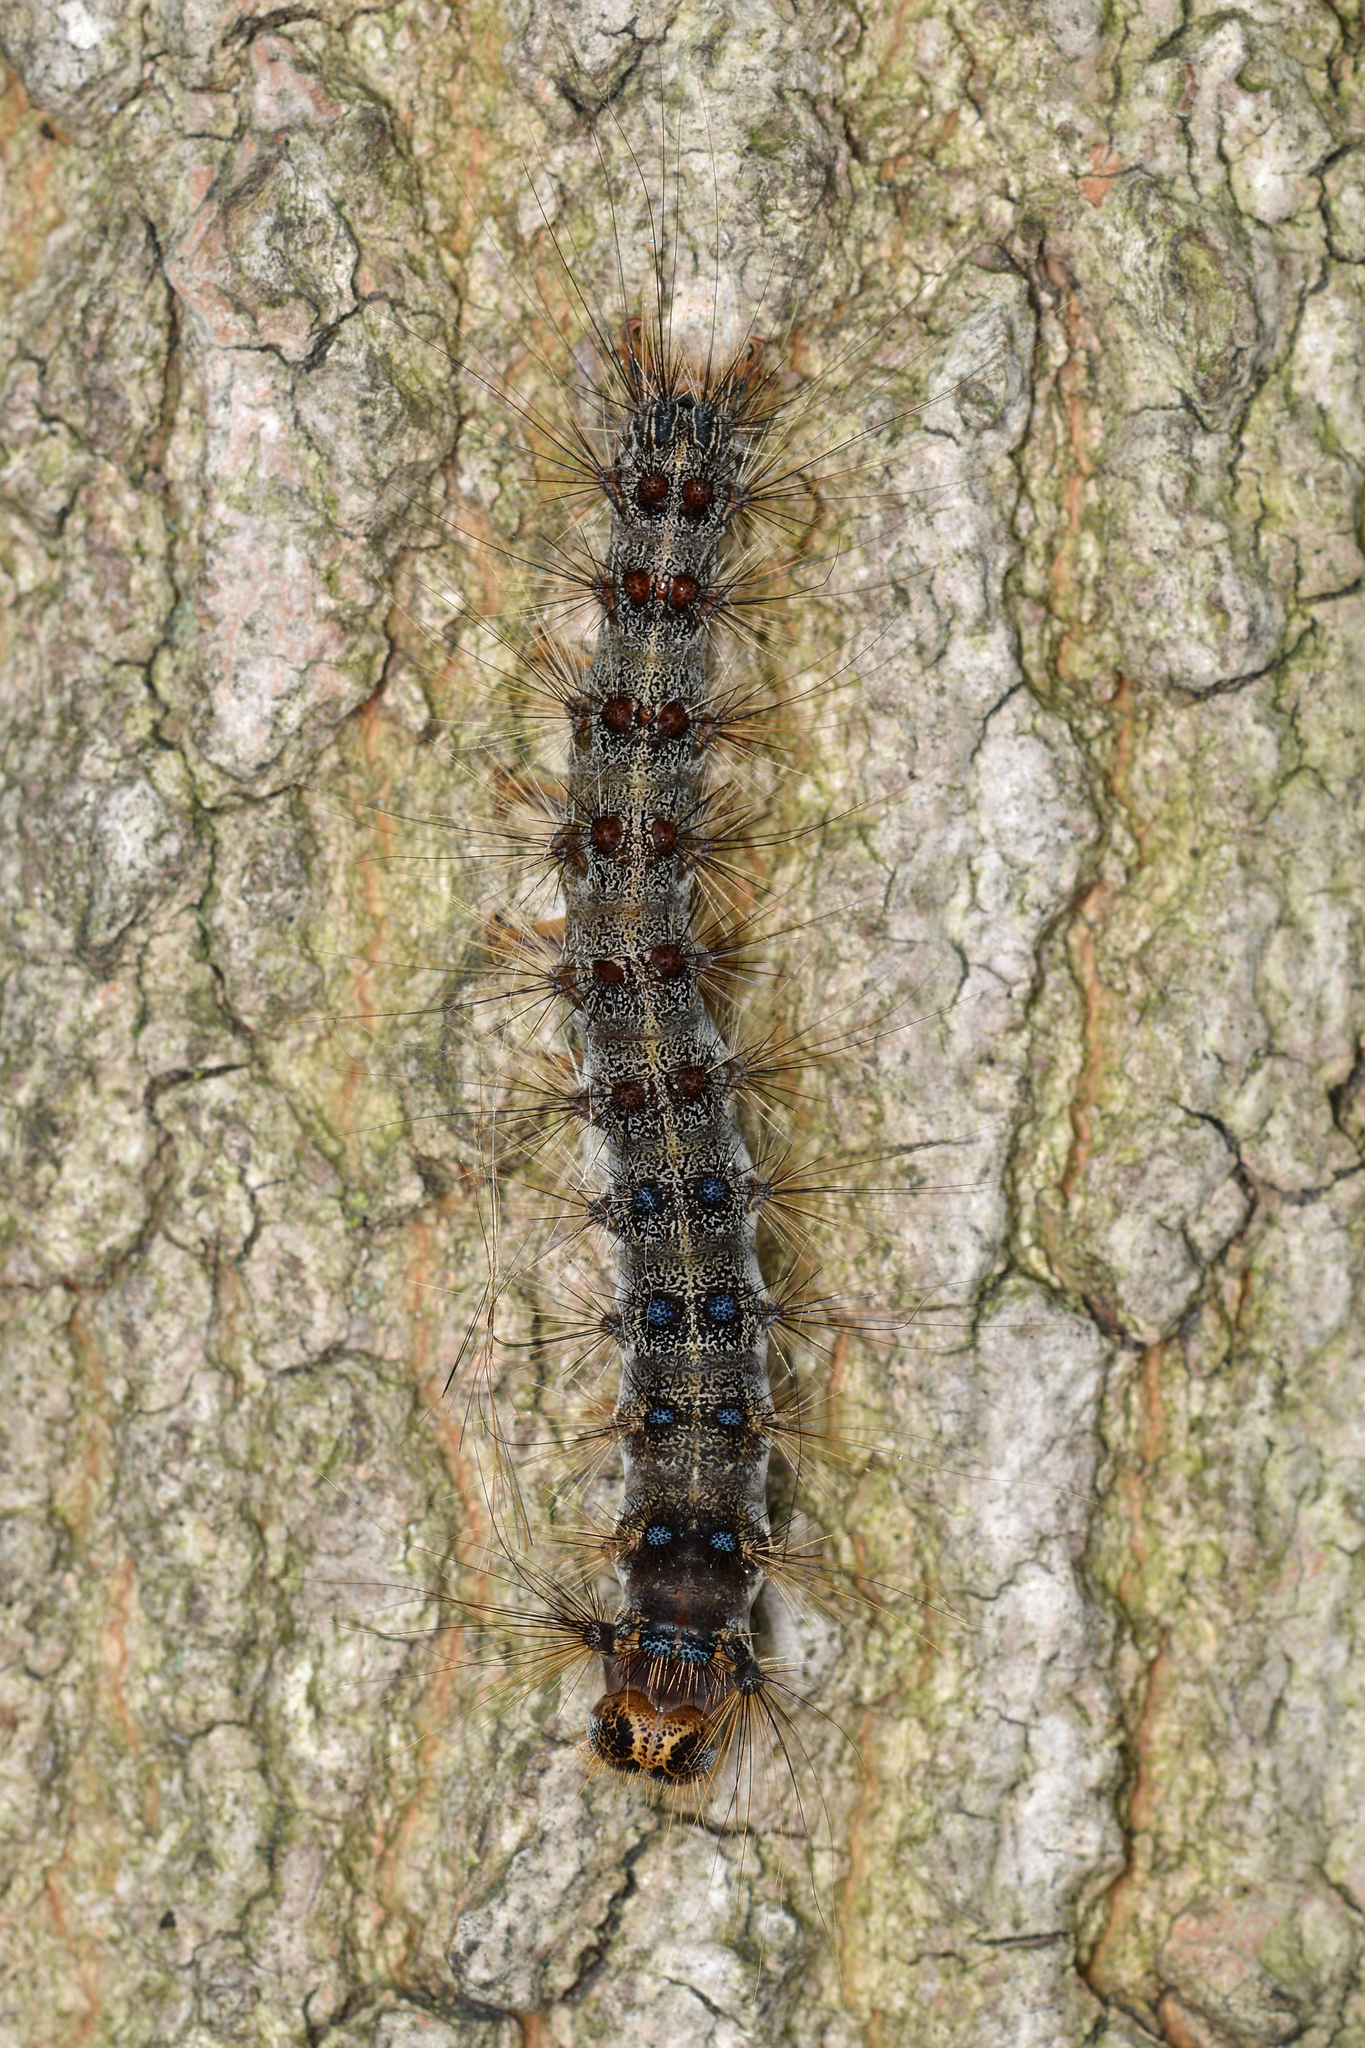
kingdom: Animalia
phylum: Arthropoda
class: Insecta
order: Lepidoptera
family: Erebidae
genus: Lymantria
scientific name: Lymantria dispar
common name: Gypsy moth
